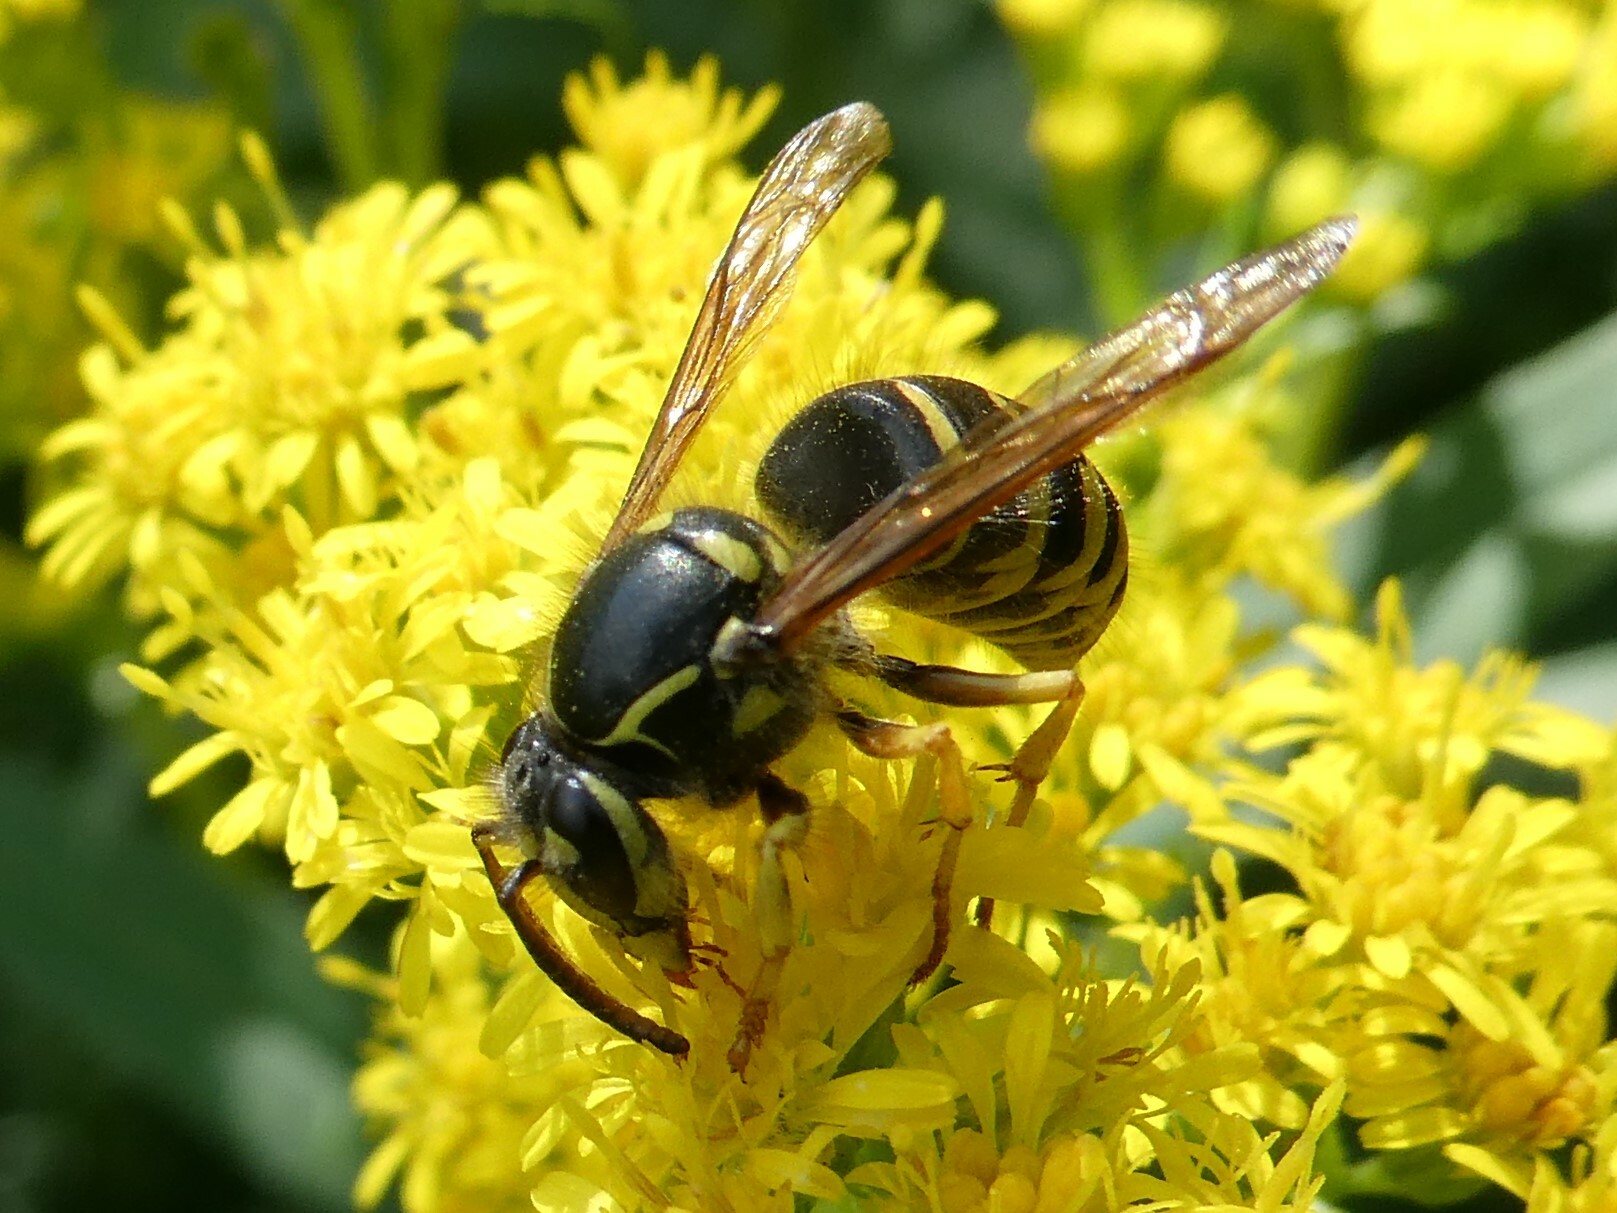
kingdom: Animalia
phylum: Arthropoda
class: Insecta
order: Hymenoptera
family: Vespidae
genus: Dolichovespula
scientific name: Dolichovespula arenaria
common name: Aerial yellowjacket
